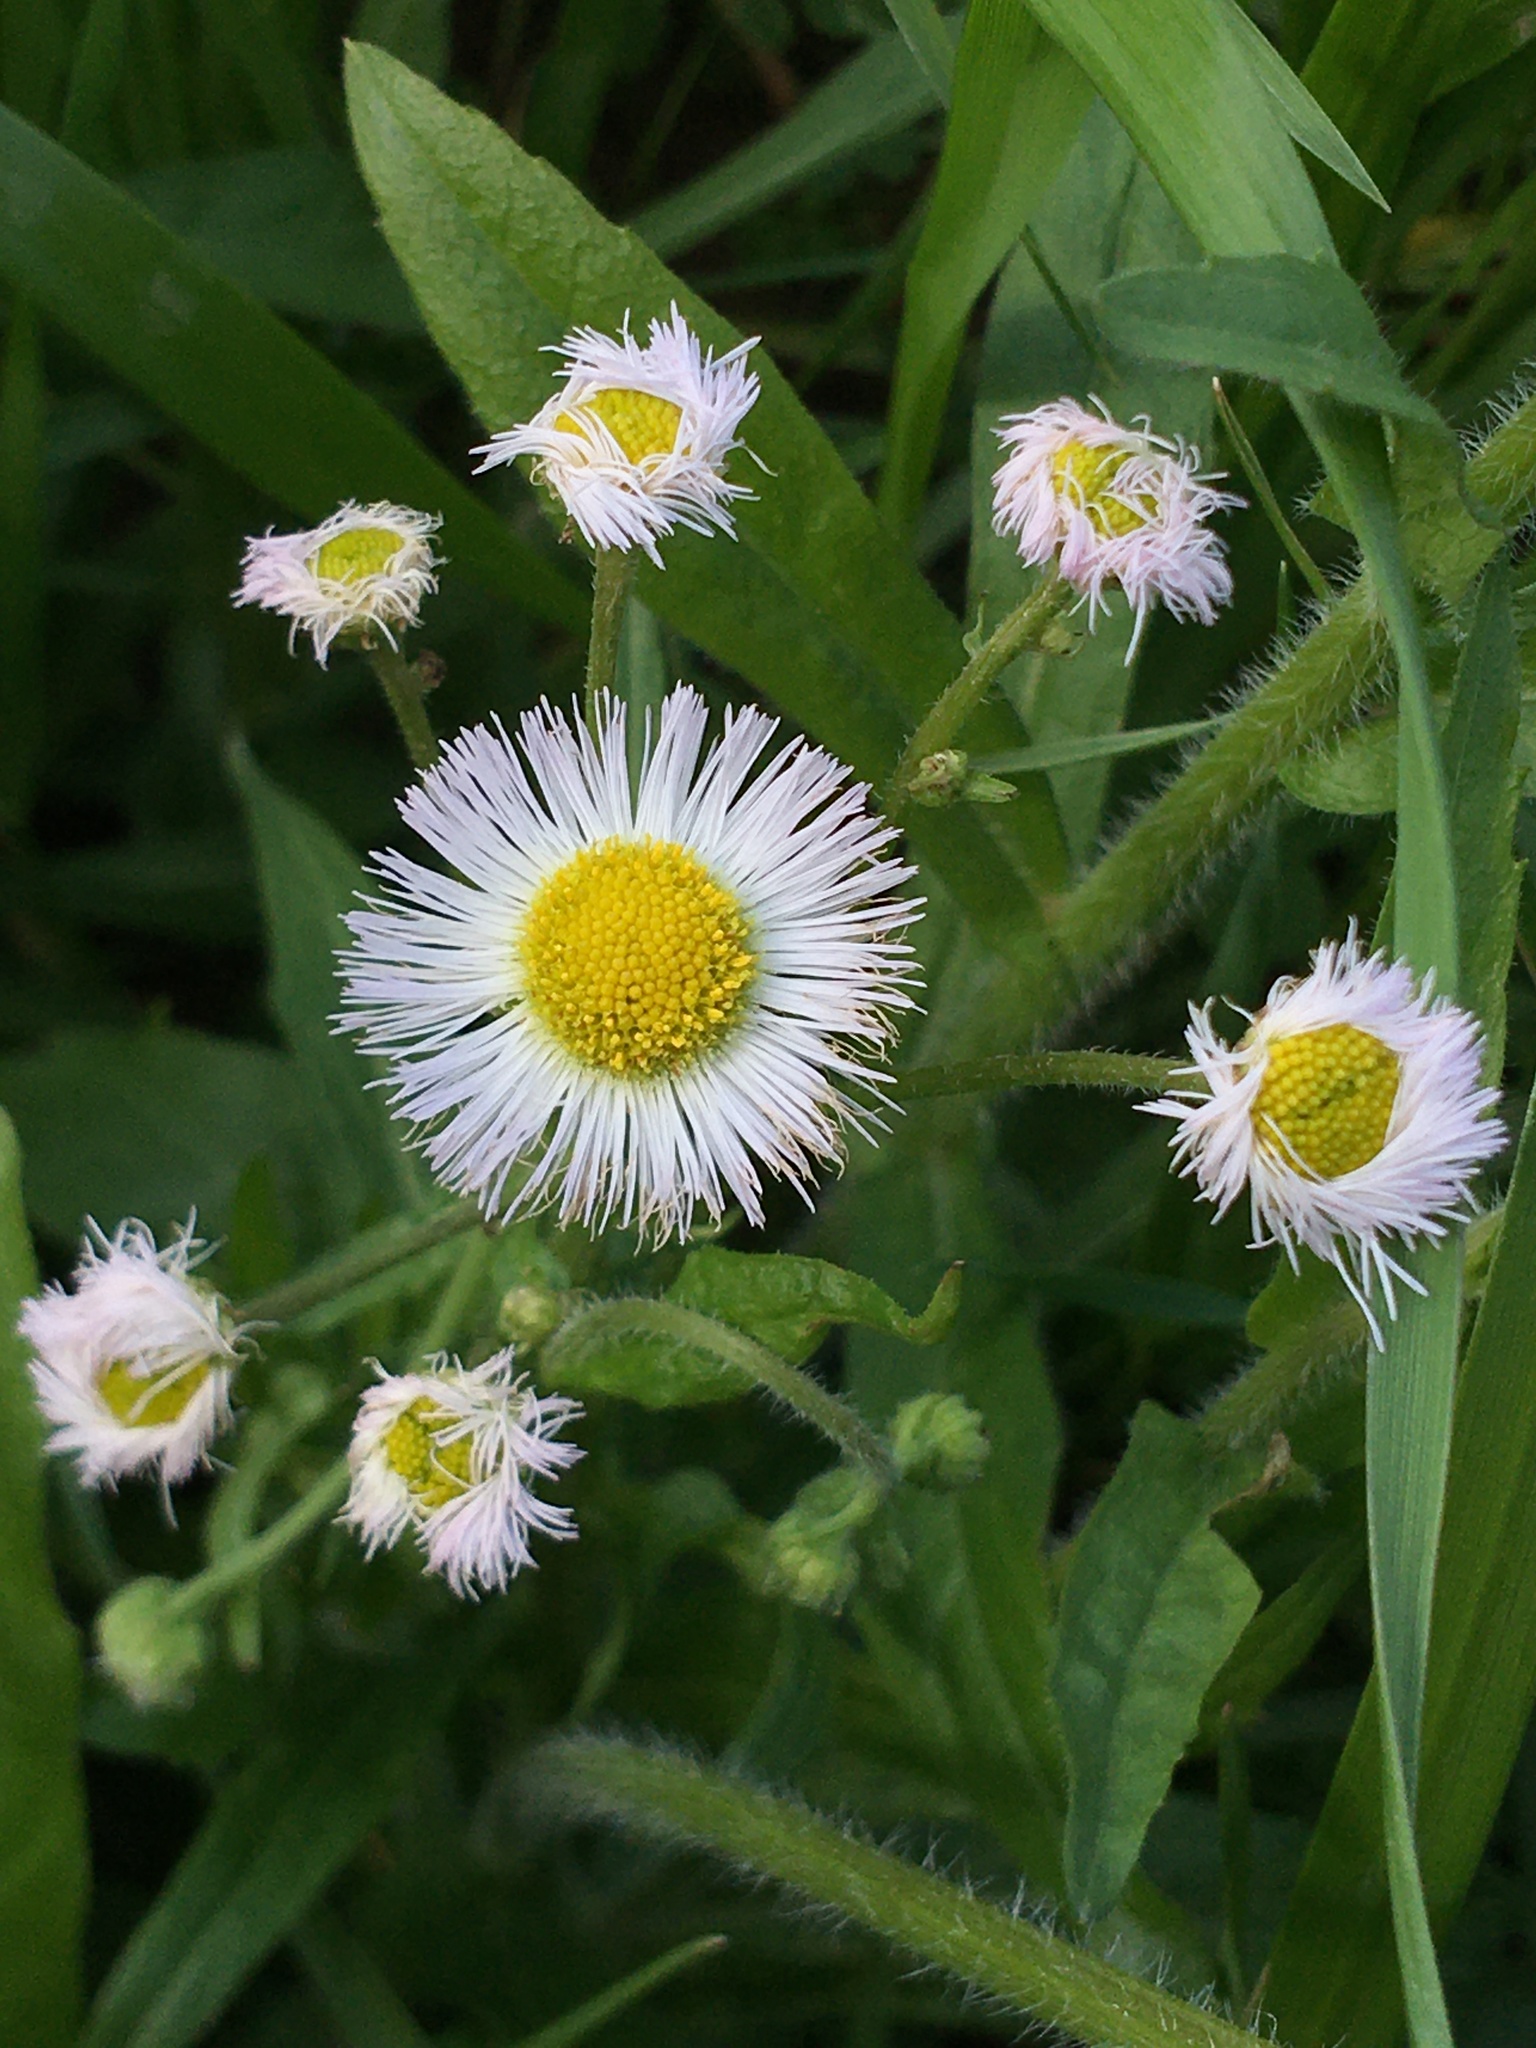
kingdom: Plantae
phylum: Tracheophyta
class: Magnoliopsida
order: Asterales
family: Asteraceae
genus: Erigeron
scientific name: Erigeron philadelphicus
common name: Robin's-plantain
